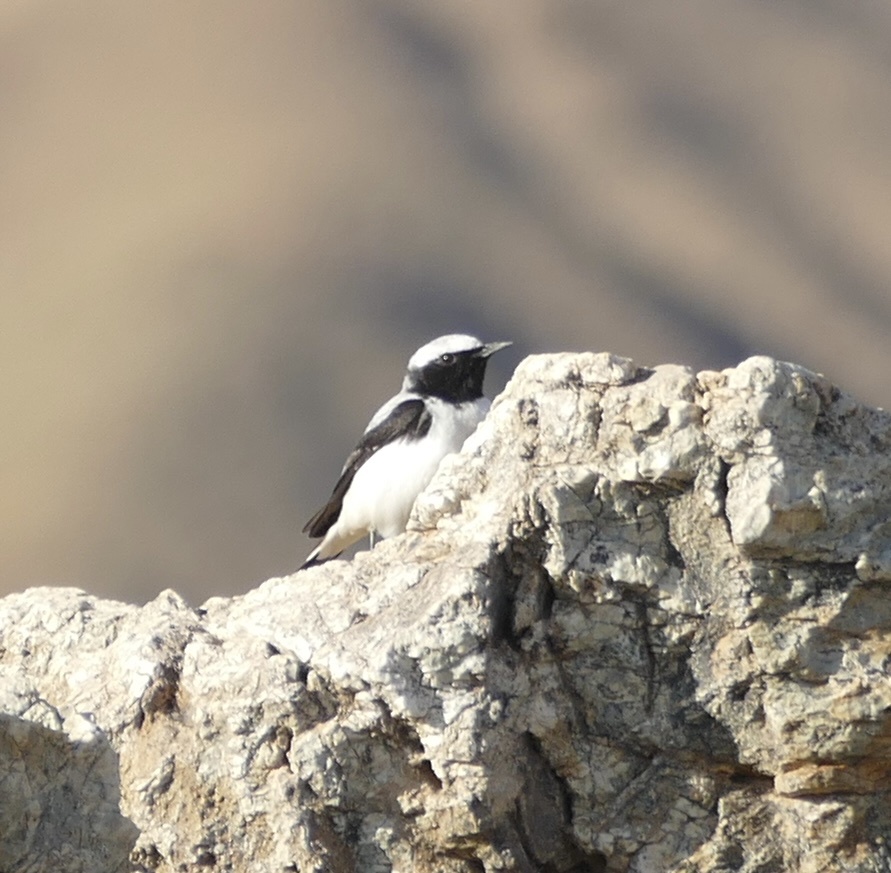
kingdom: Animalia
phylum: Chordata
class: Aves
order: Passeriformes
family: Muscicapidae
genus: Oenanthe
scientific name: Oenanthe oenanthe
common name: Northern wheatear
